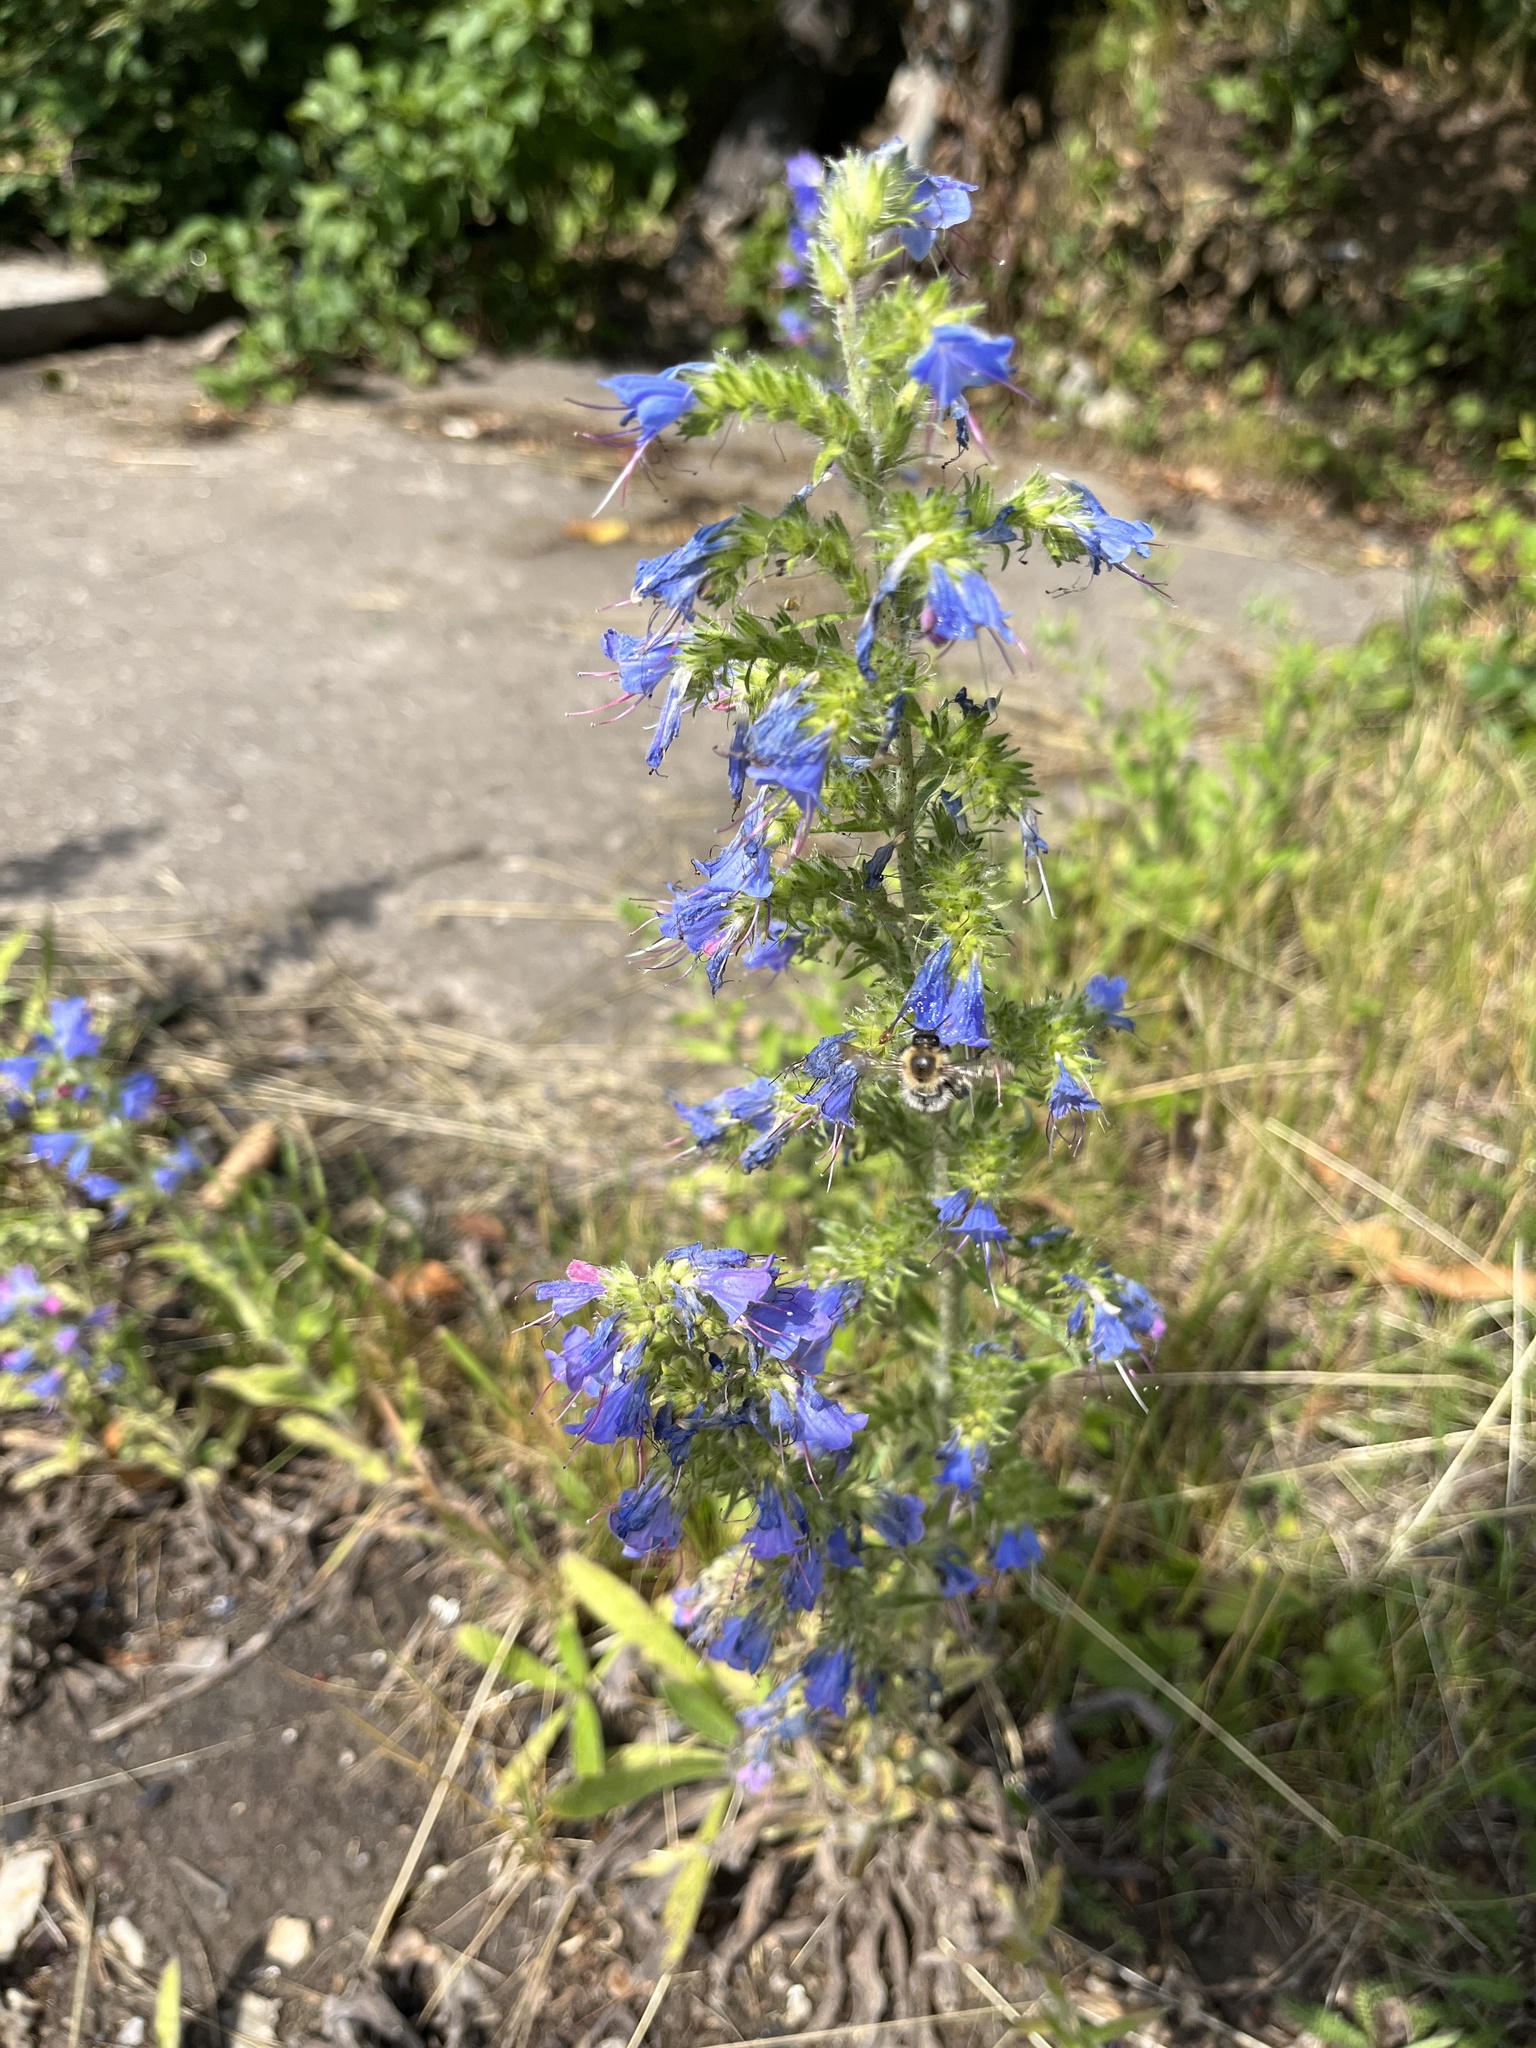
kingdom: Plantae
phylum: Tracheophyta
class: Magnoliopsida
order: Boraginales
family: Boraginaceae
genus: Echium
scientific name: Echium vulgare
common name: Common viper's bugloss
